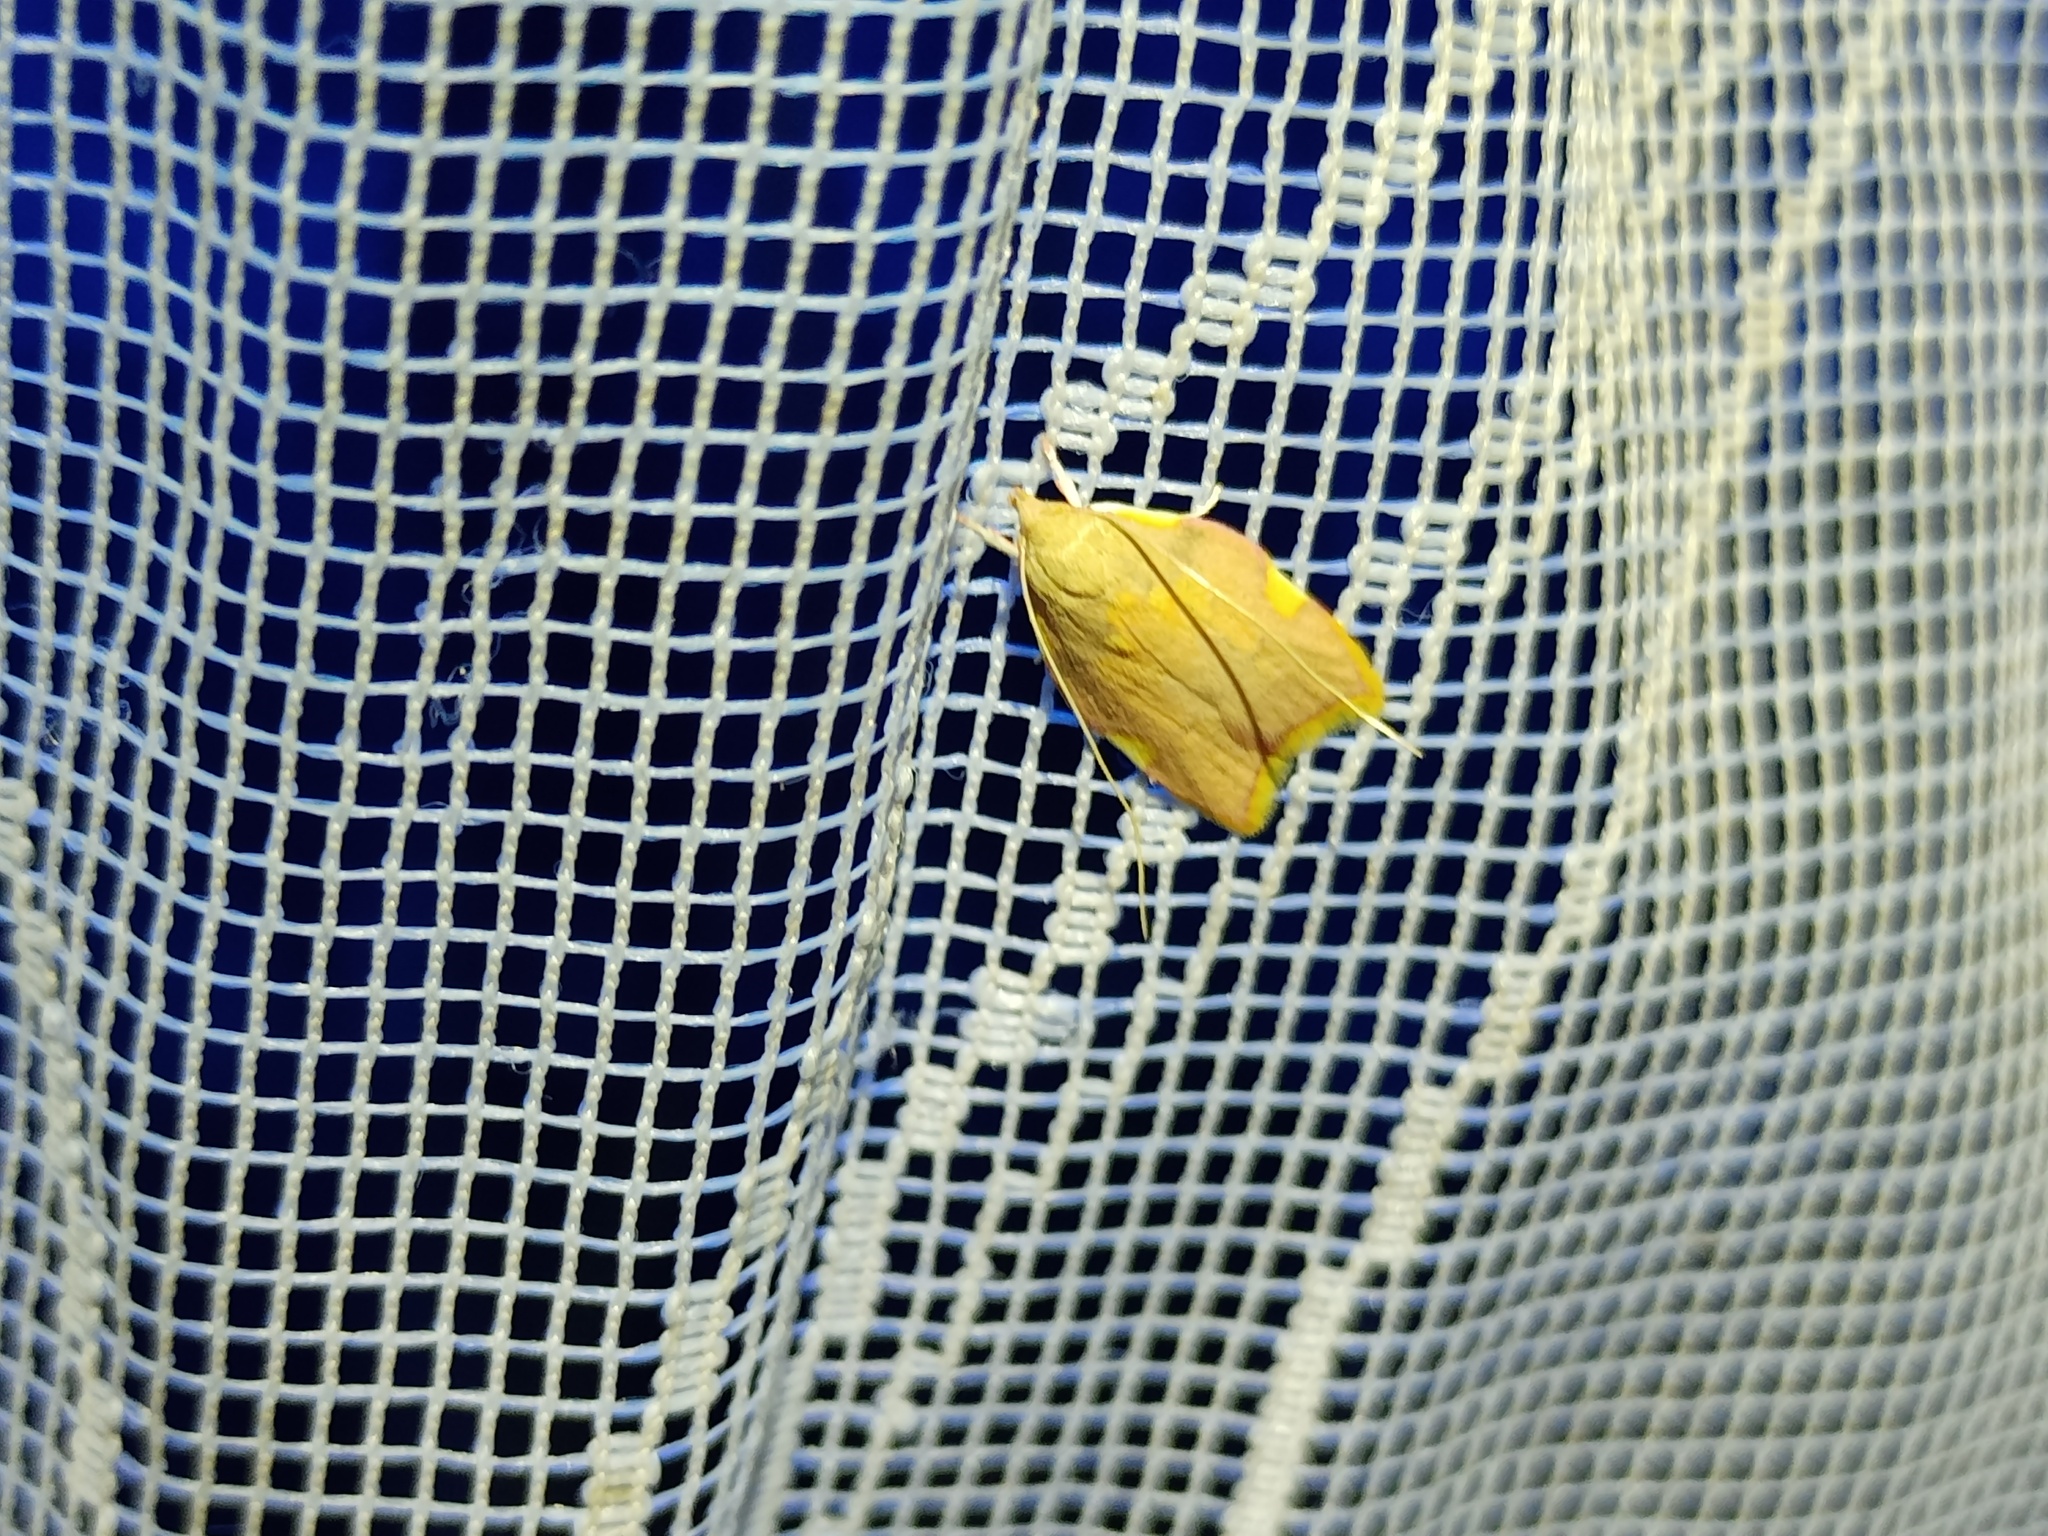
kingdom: Animalia
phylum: Arthropoda
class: Insecta
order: Lepidoptera
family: Peleopodidae
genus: Carcina
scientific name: Carcina quercana
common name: Moth
